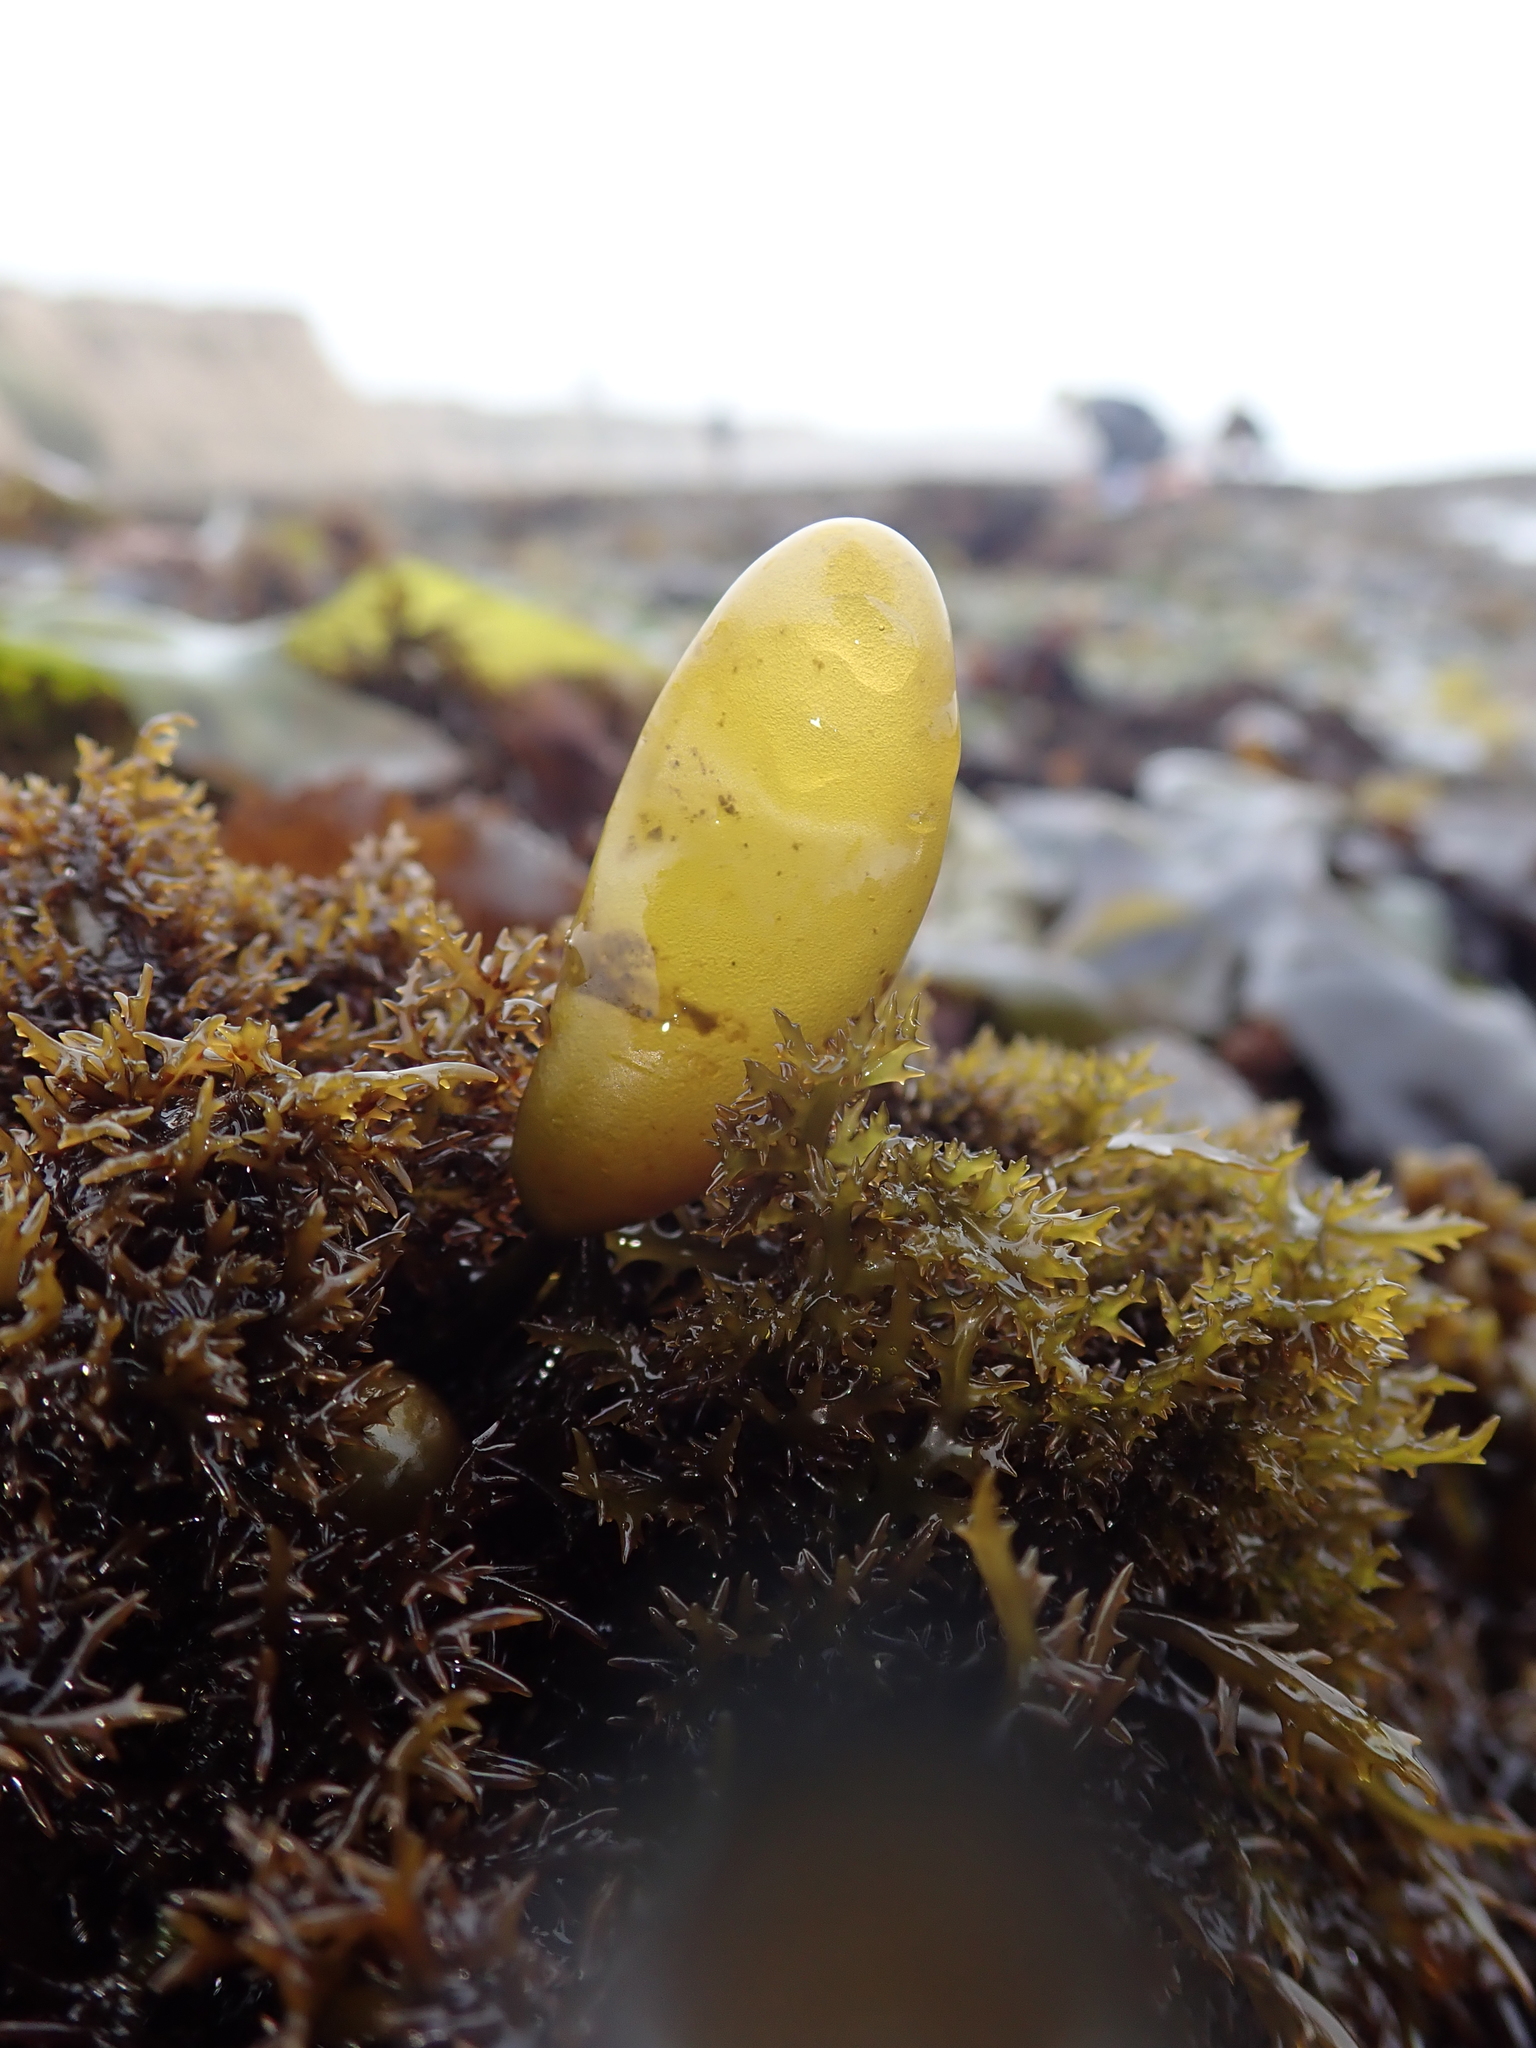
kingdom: Plantae
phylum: Rhodophyta
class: Florideophyceae
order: Palmariales
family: Palmariaceae
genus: Halosaccion
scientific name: Halosaccion glandiforme
